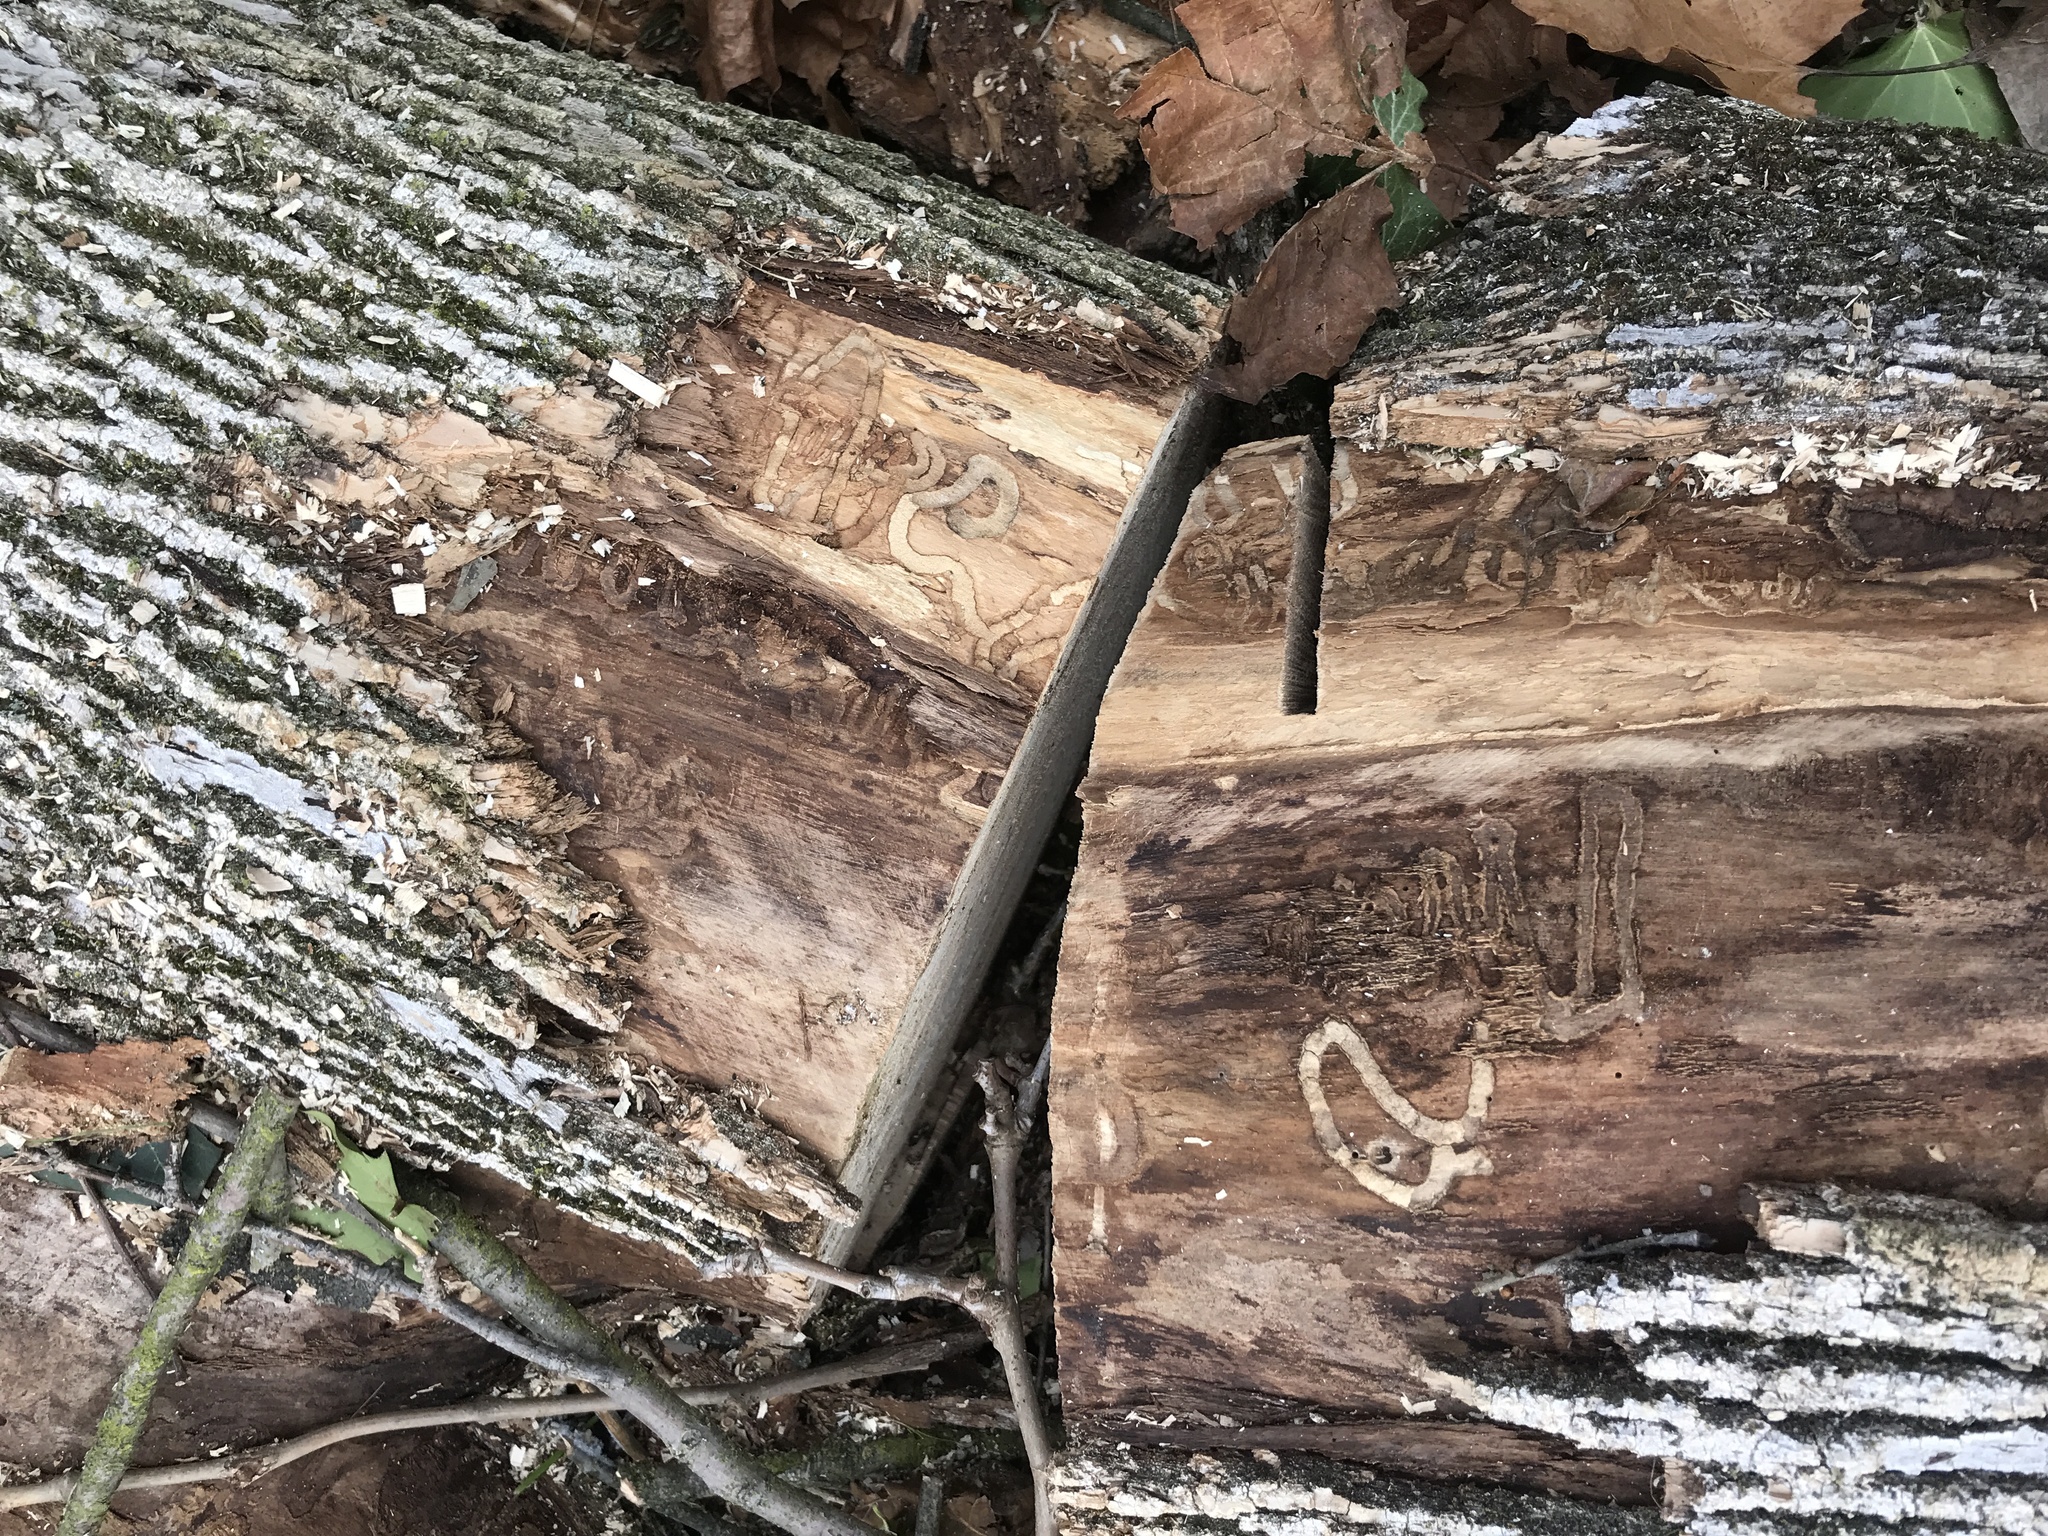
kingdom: Animalia
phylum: Arthropoda
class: Insecta
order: Coleoptera
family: Buprestidae
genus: Agrilus
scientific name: Agrilus planipennis
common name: Emerald ash borer
